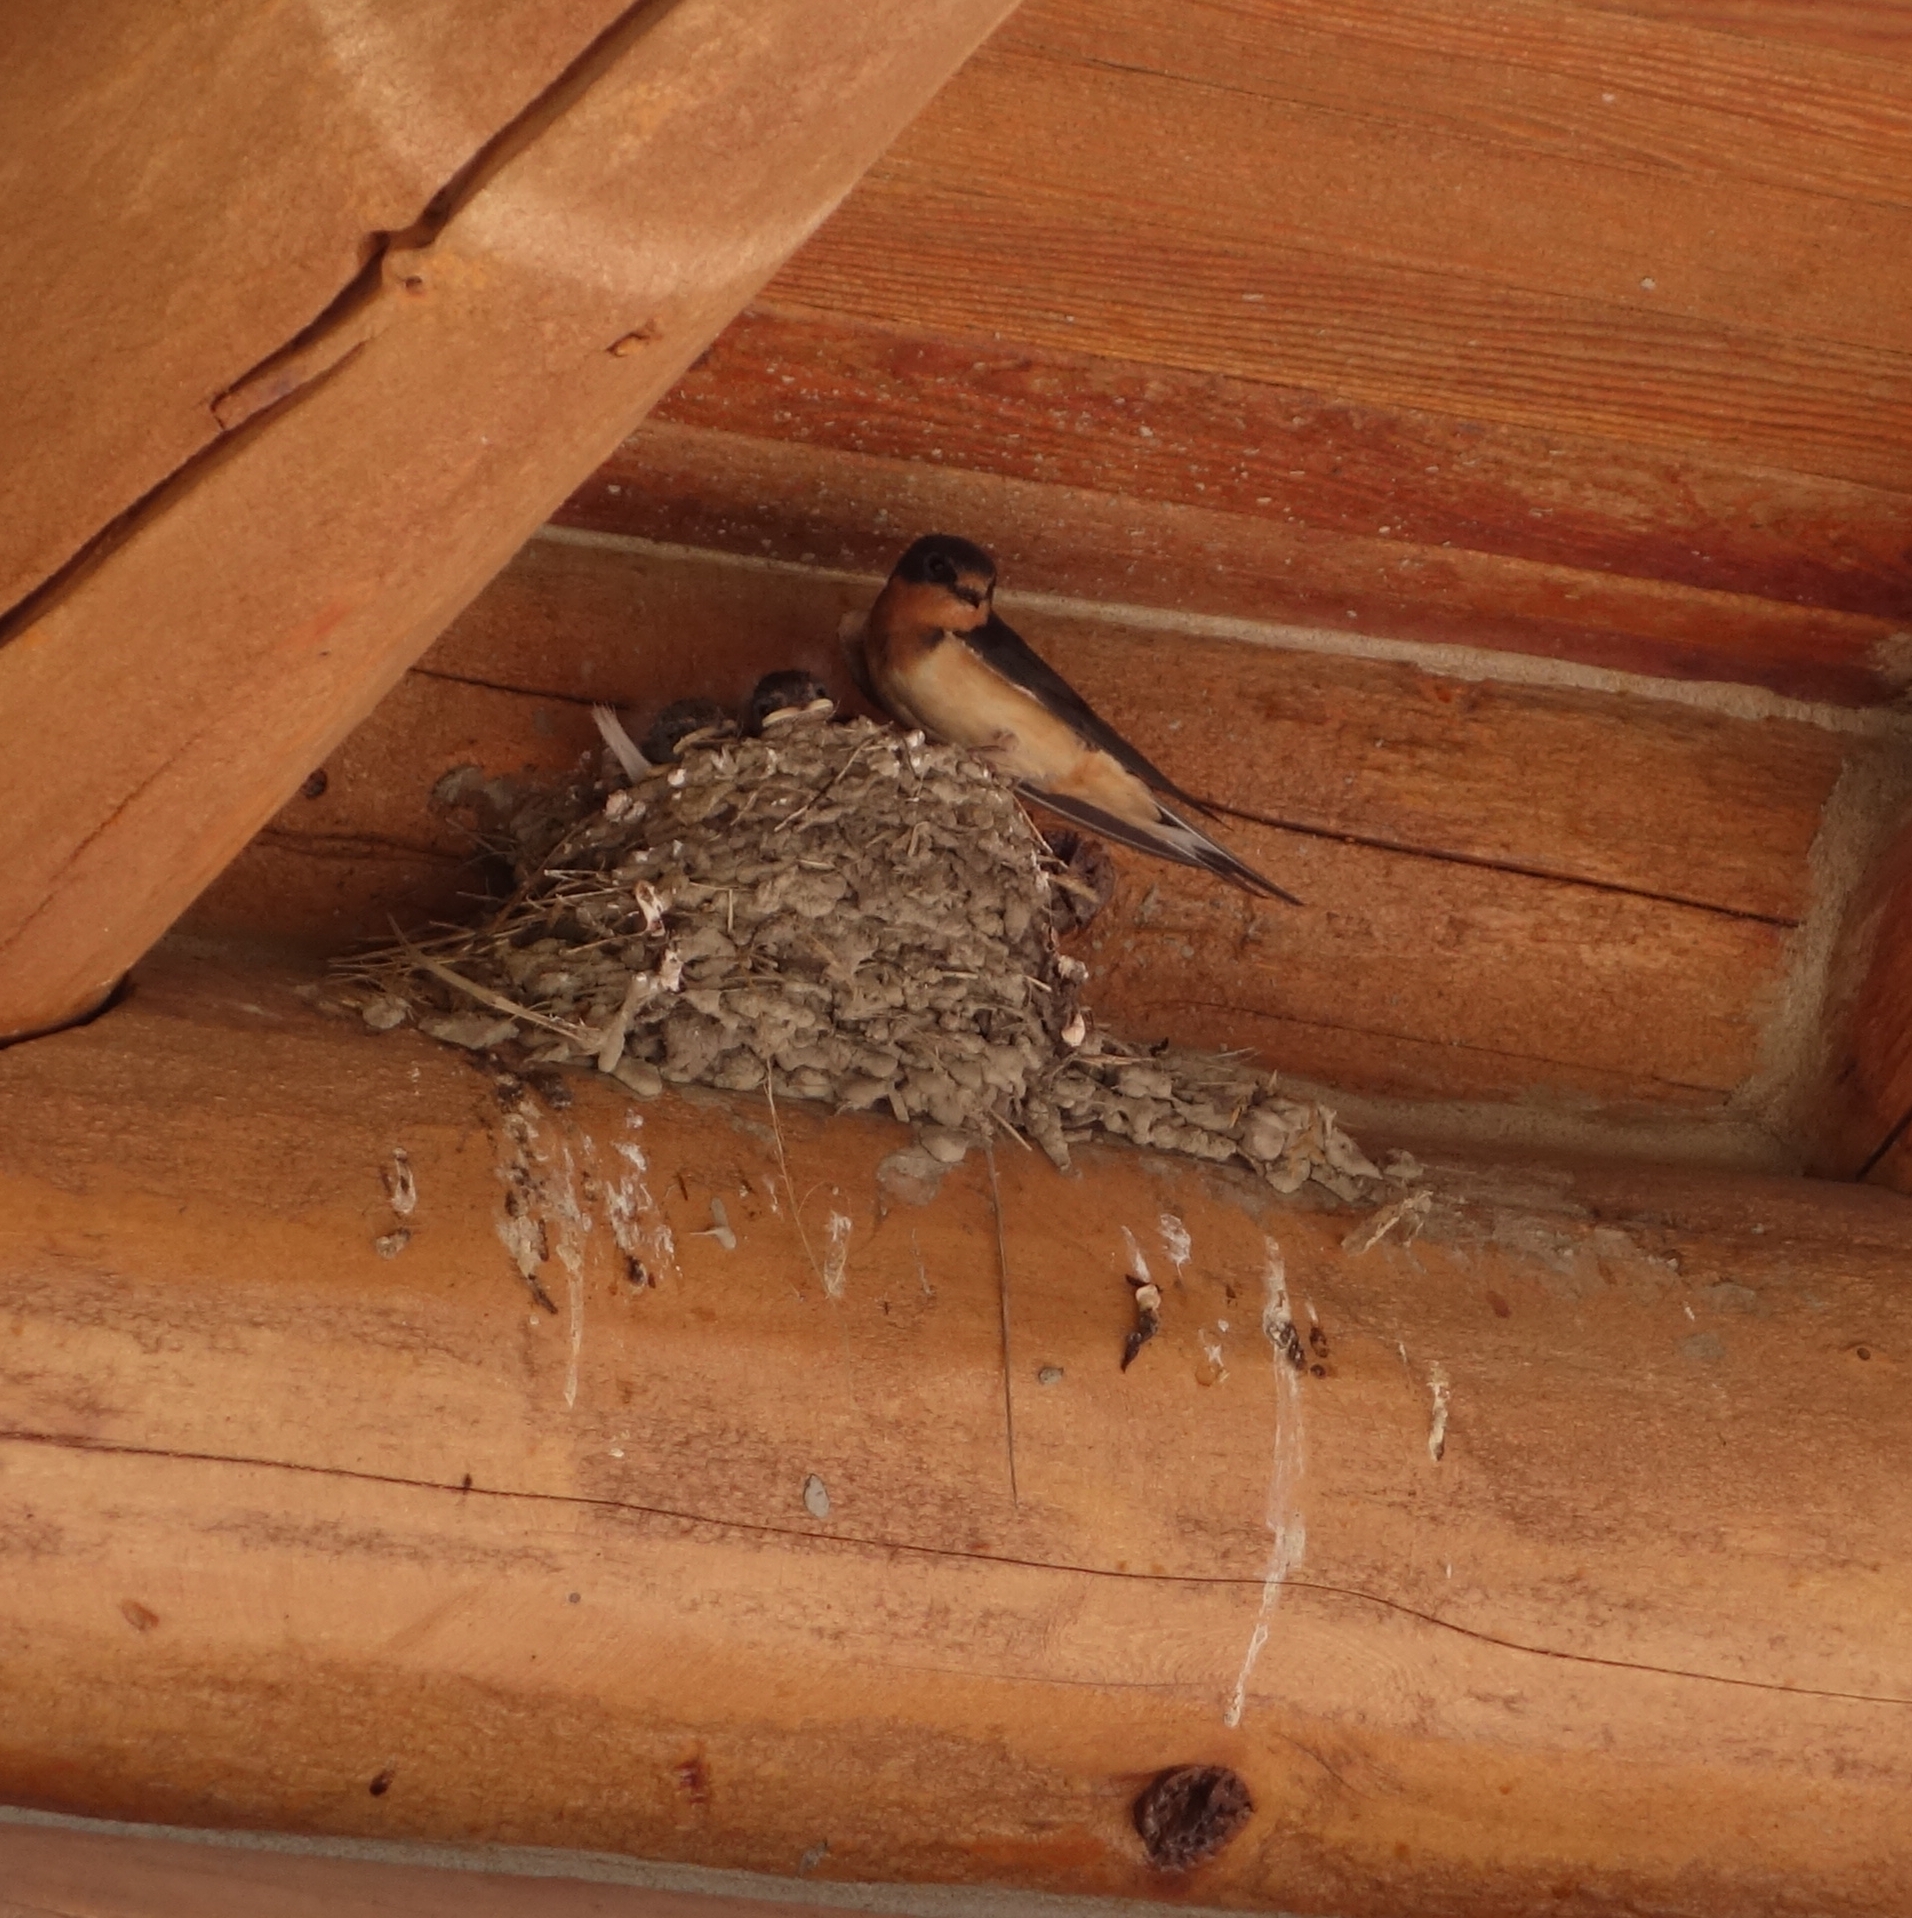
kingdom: Animalia
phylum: Chordata
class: Aves
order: Passeriformes
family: Hirundinidae
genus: Hirundo
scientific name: Hirundo rustica
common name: Barn swallow
